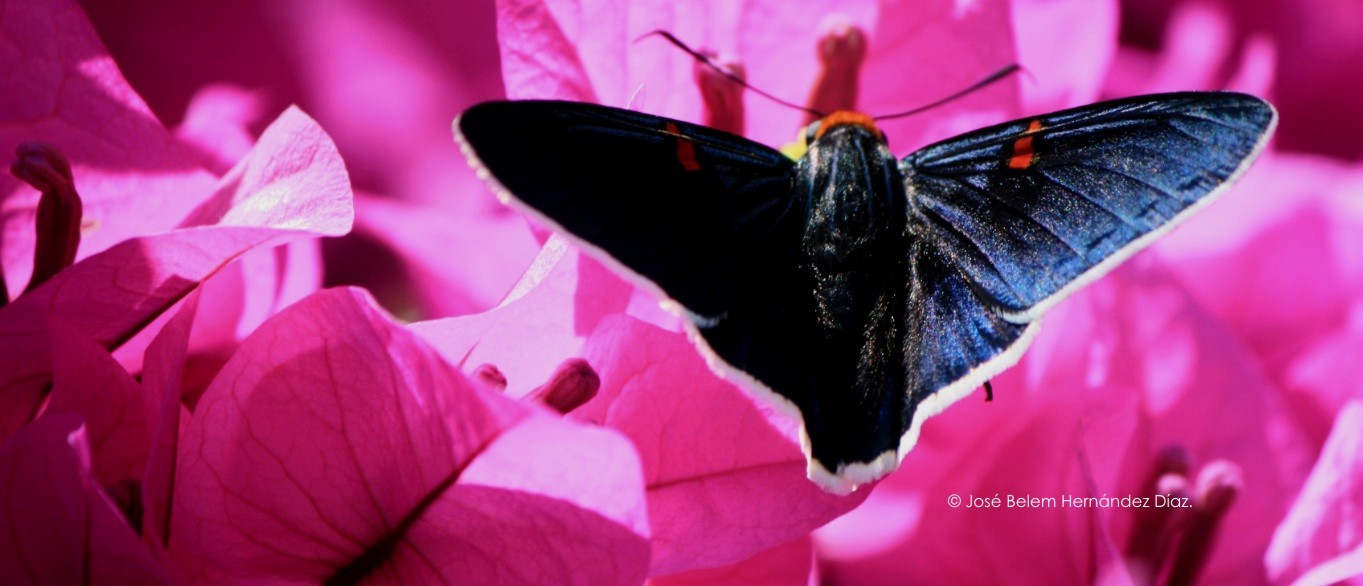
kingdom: Animalia
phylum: Arthropoda
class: Insecta
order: Lepidoptera
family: Hesperiidae
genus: Phocides
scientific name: Phocides lilea
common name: Guava skipper
